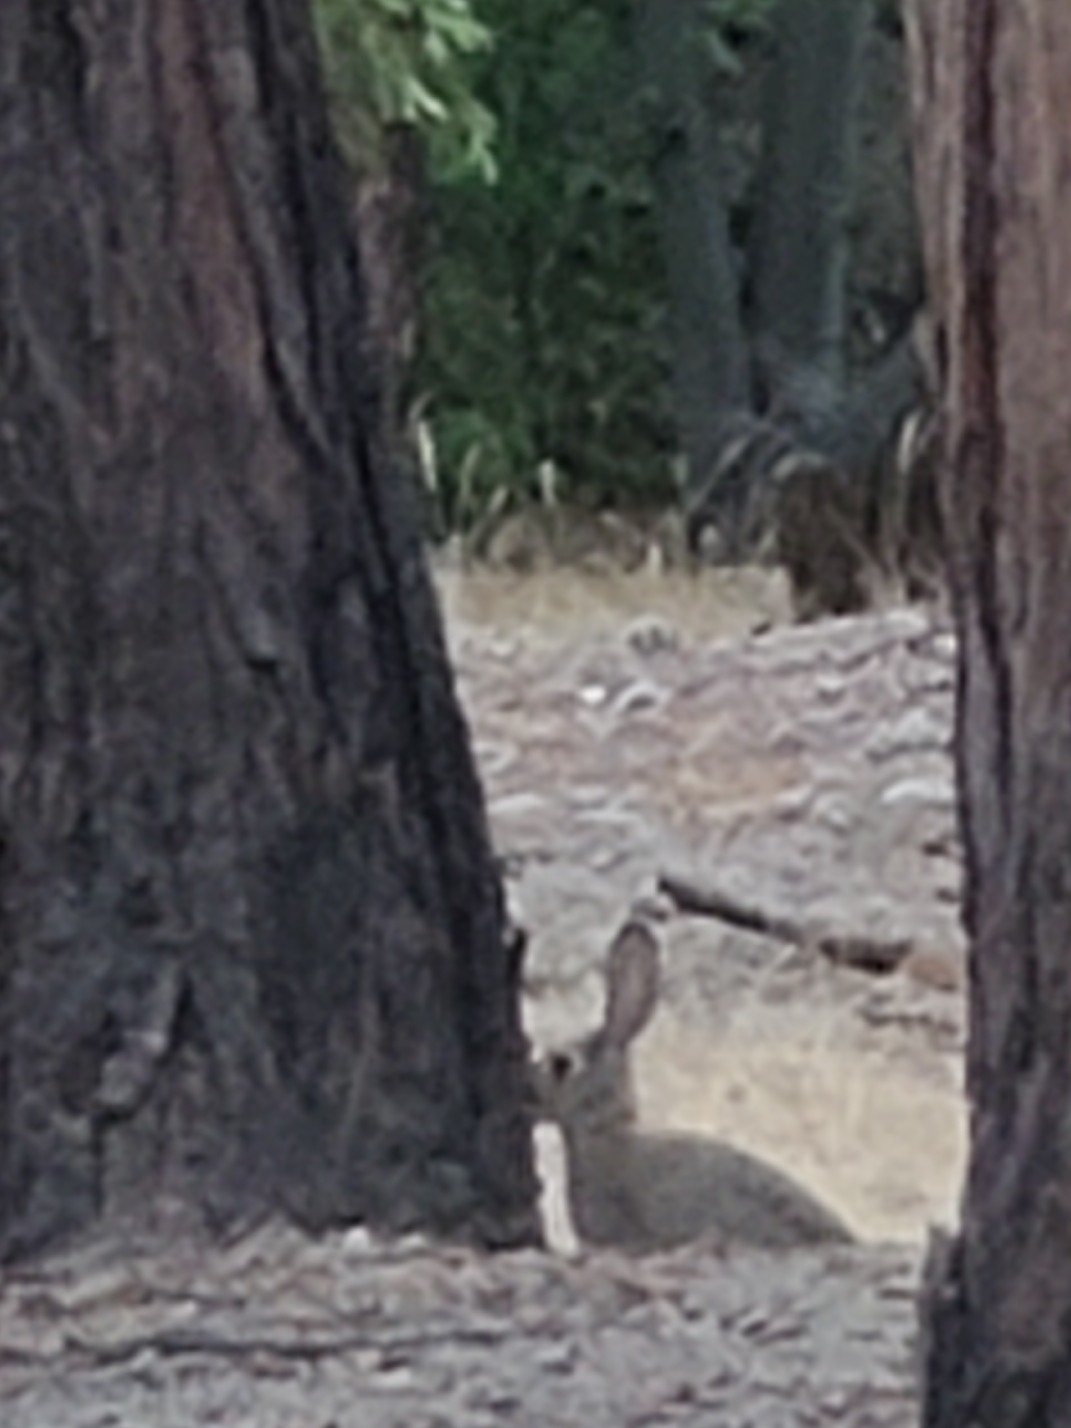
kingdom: Animalia
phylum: Chordata
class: Mammalia
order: Lagomorpha
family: Leporidae
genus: Sylvilagus
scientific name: Sylvilagus audubonii
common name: Desert cottontail
